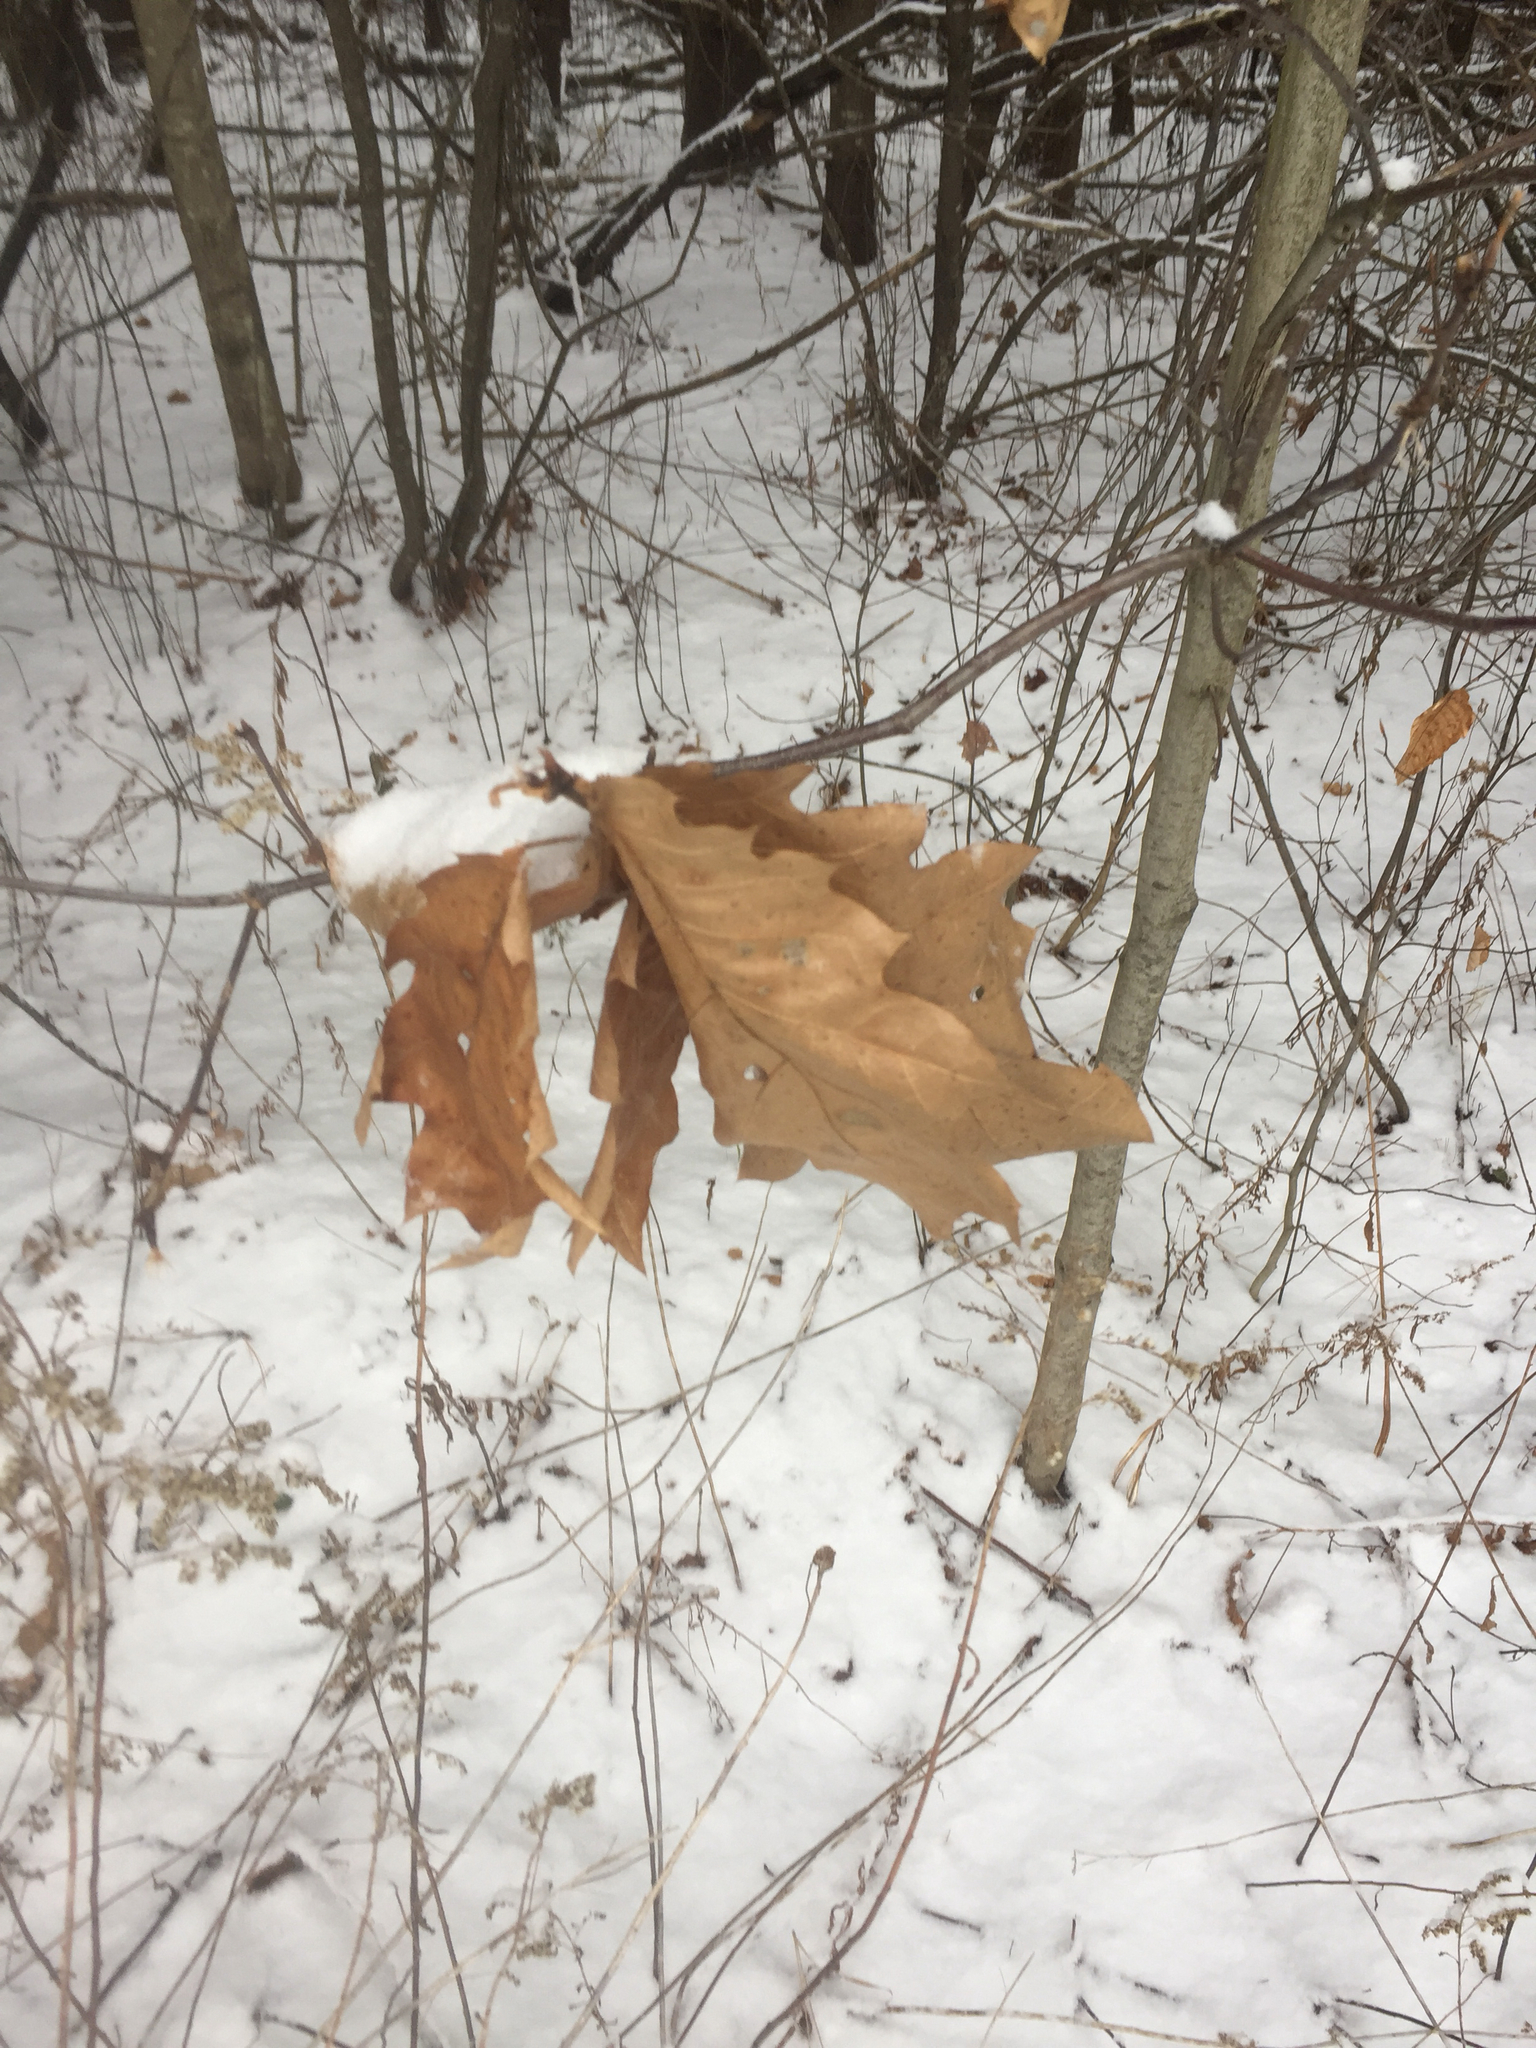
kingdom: Plantae
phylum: Tracheophyta
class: Magnoliopsida
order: Fagales
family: Fagaceae
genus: Quercus
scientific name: Quercus rubra
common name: Red oak
